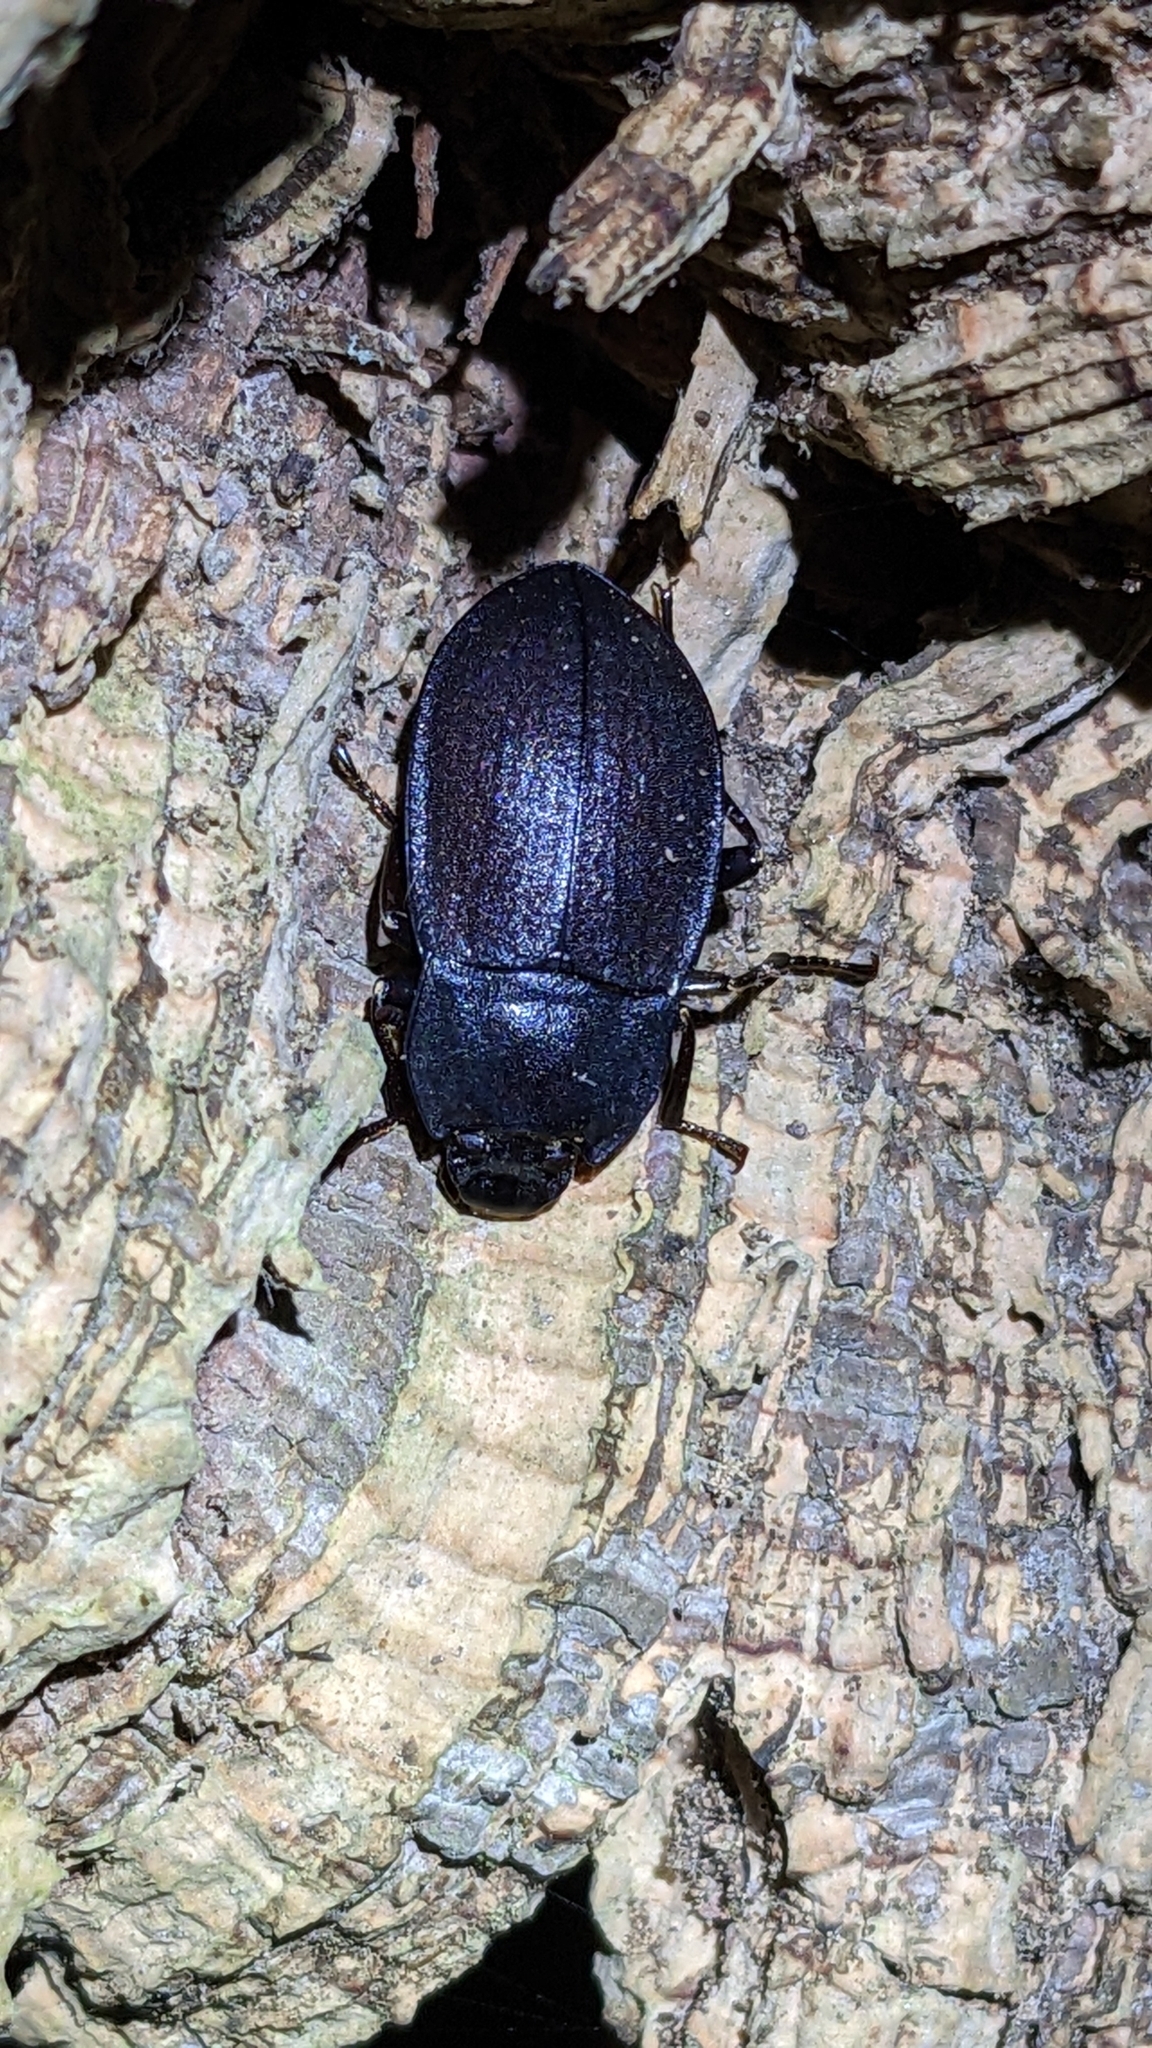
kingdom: Animalia
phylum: Arthropoda
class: Insecta
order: Coleoptera
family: Tenebrionidae
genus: Mimopeus
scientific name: Mimopeus
